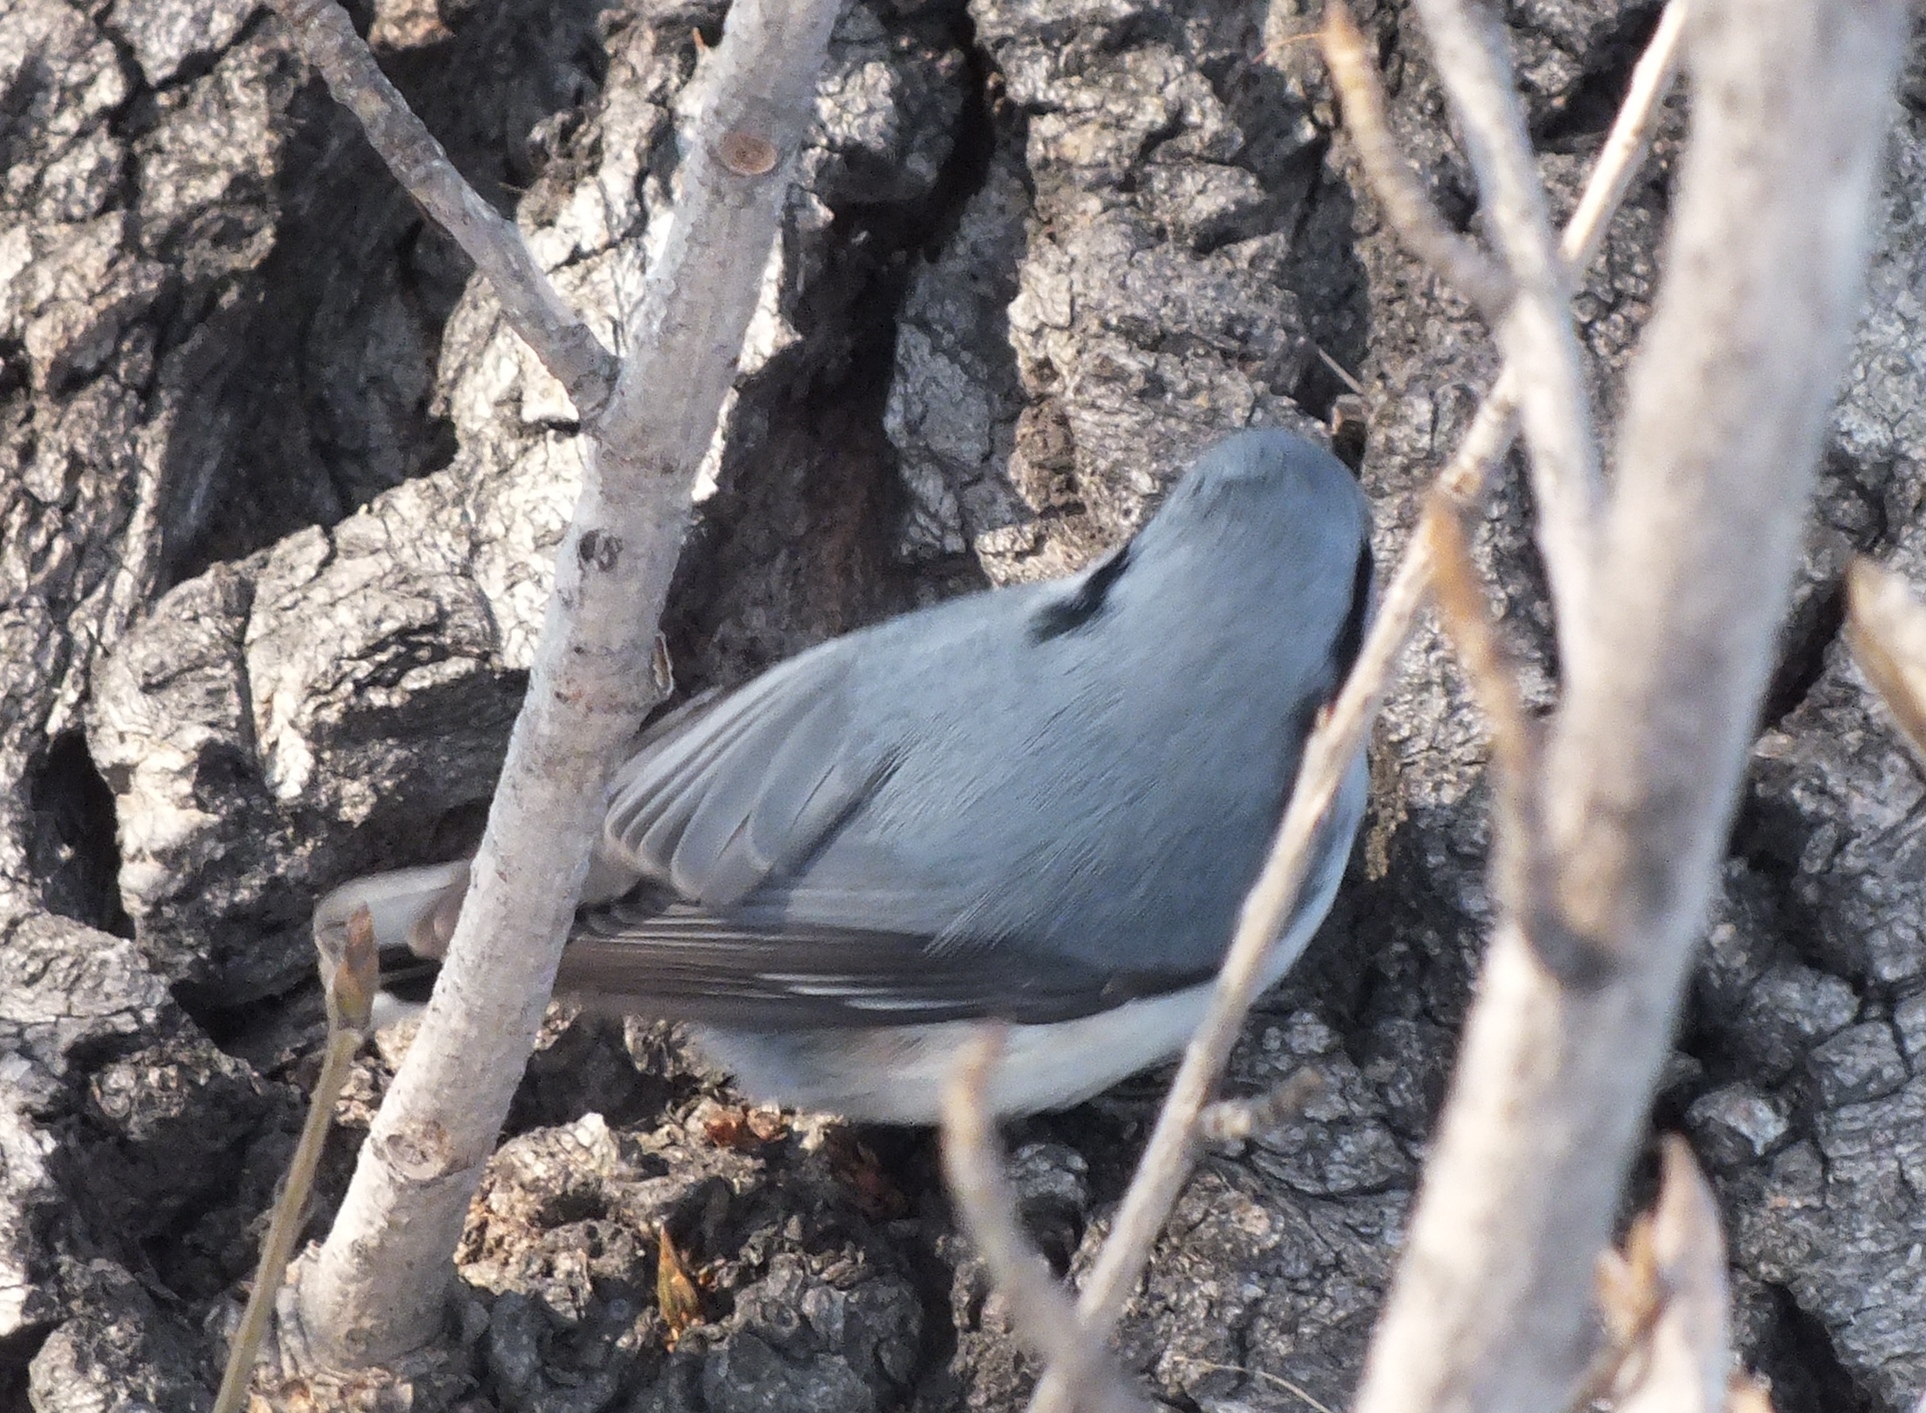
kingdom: Animalia
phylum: Chordata
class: Aves
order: Passeriformes
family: Sittidae
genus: Sitta
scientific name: Sitta europaea
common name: Eurasian nuthatch
